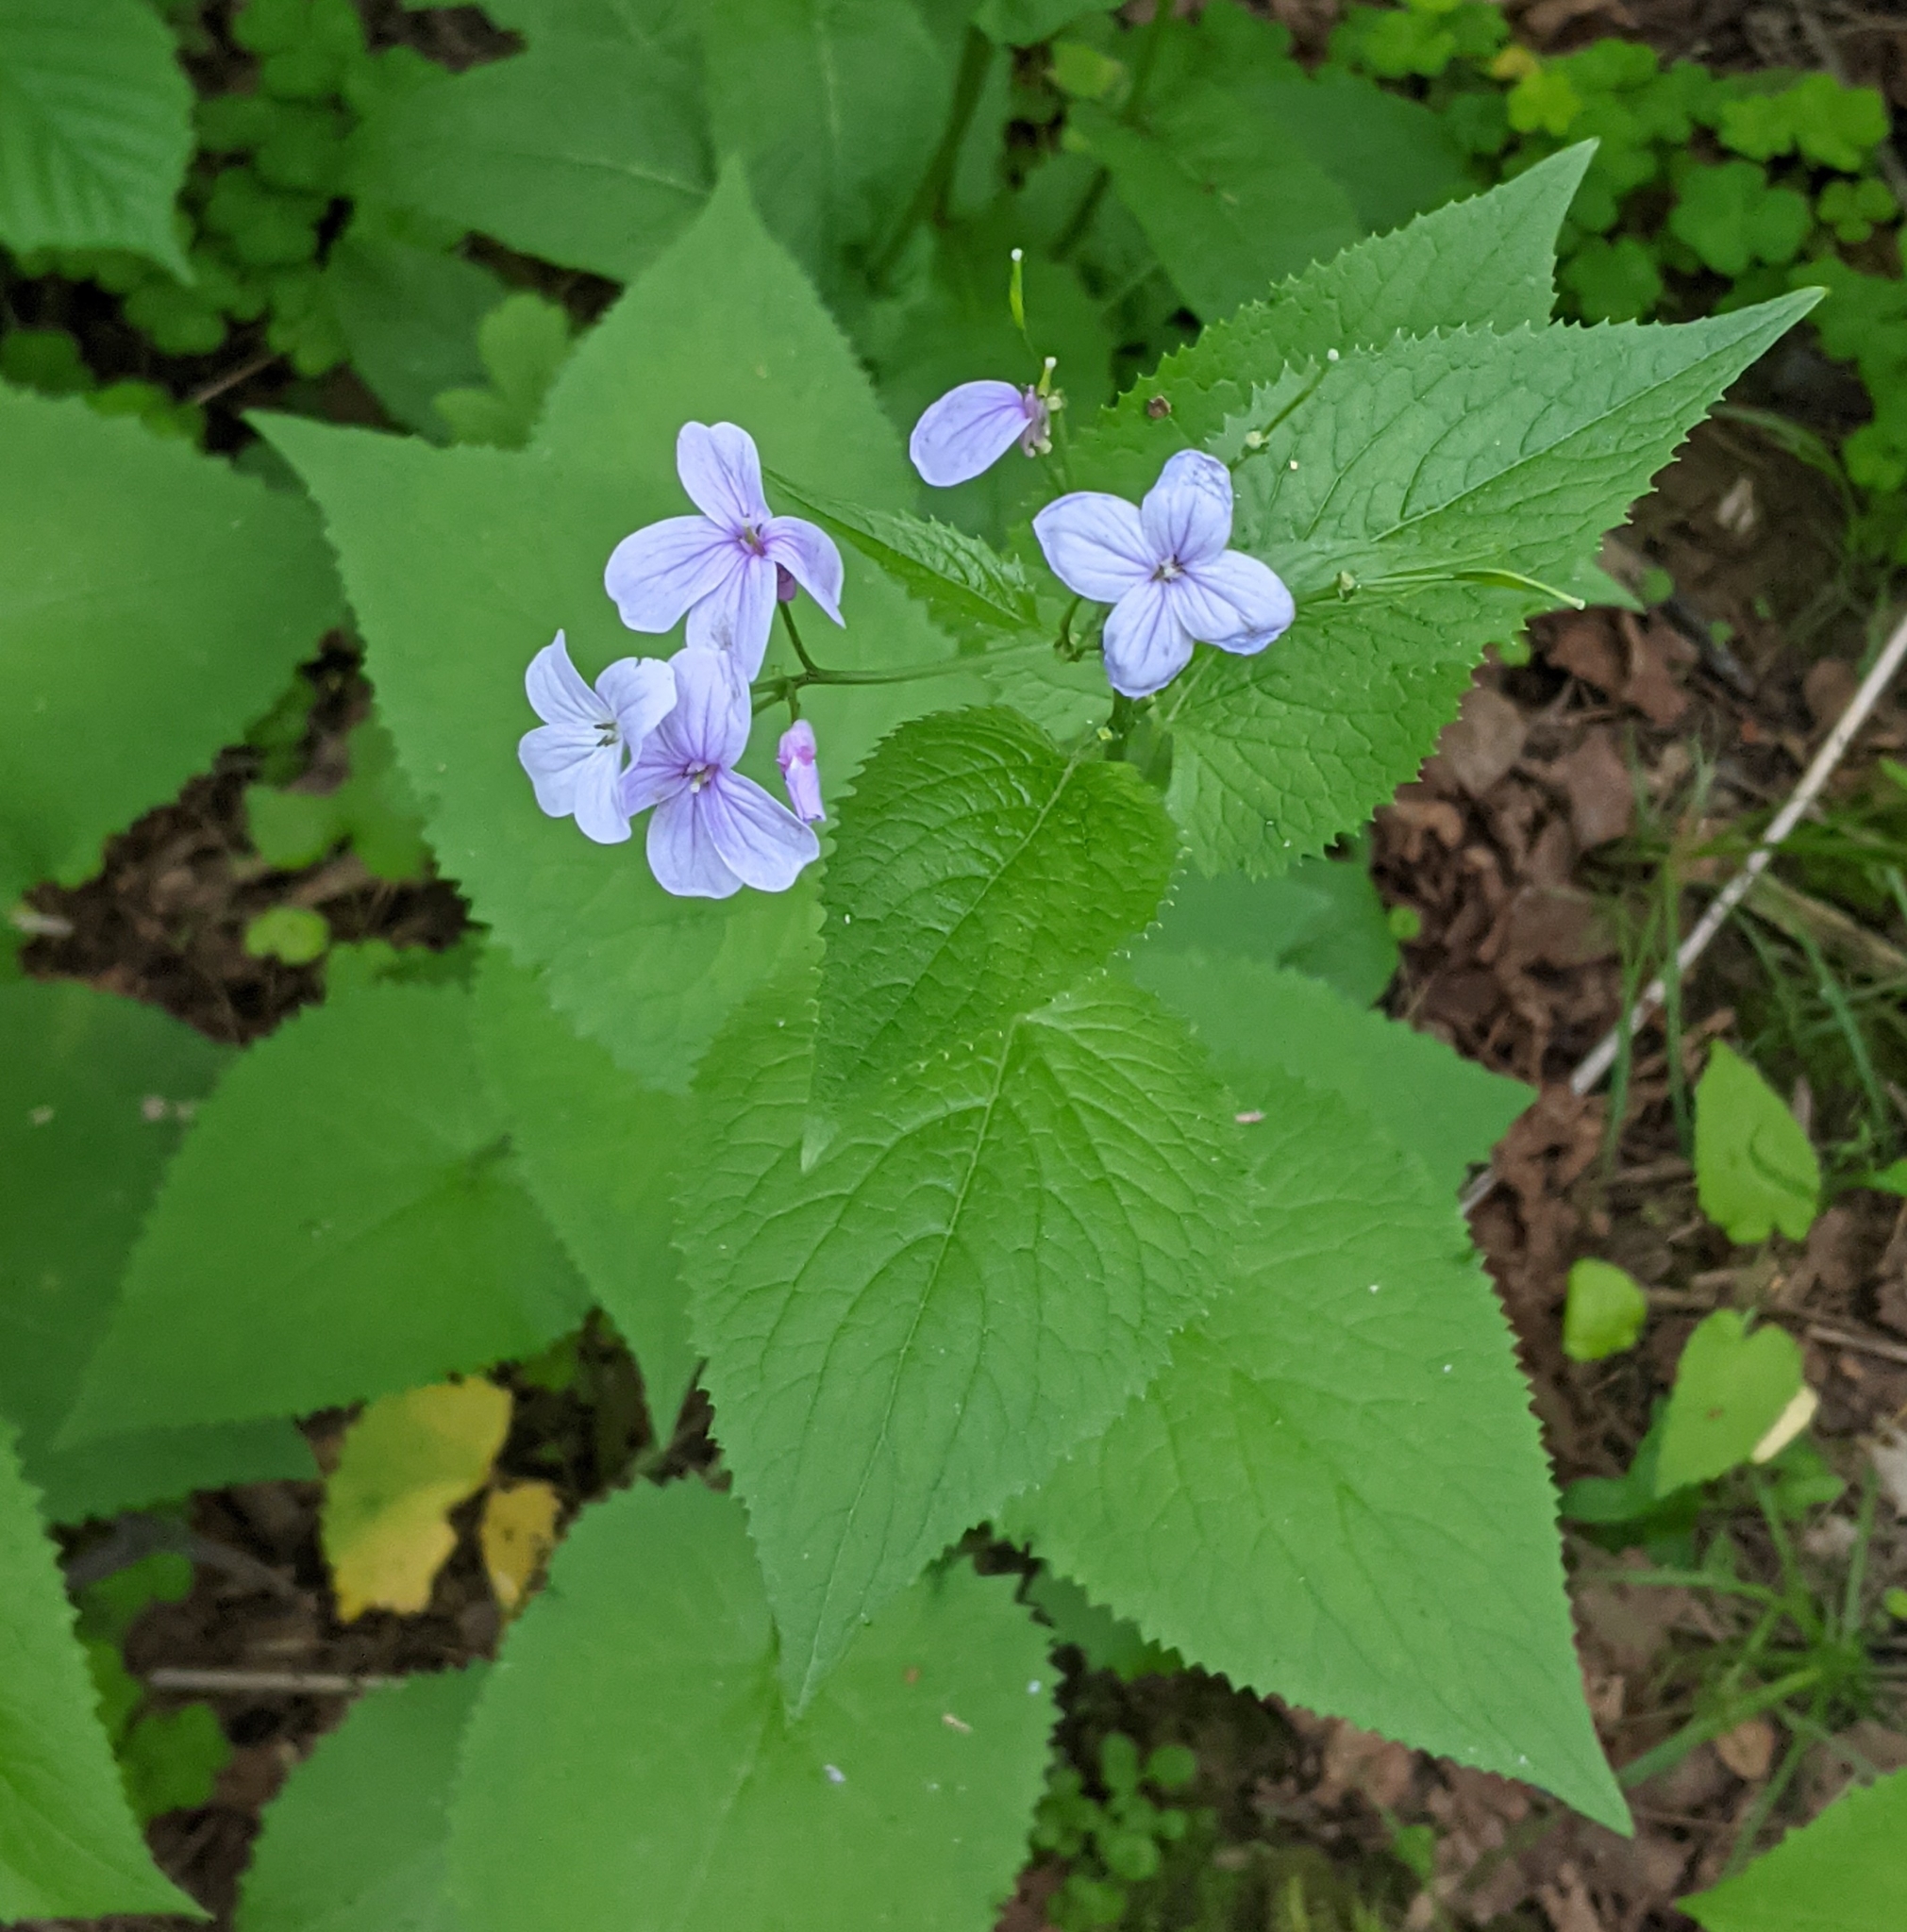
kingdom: Plantae
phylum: Tracheophyta
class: Magnoliopsida
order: Brassicales
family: Brassicaceae
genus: Lunaria
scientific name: Lunaria rediviva
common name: Perennial honesty
